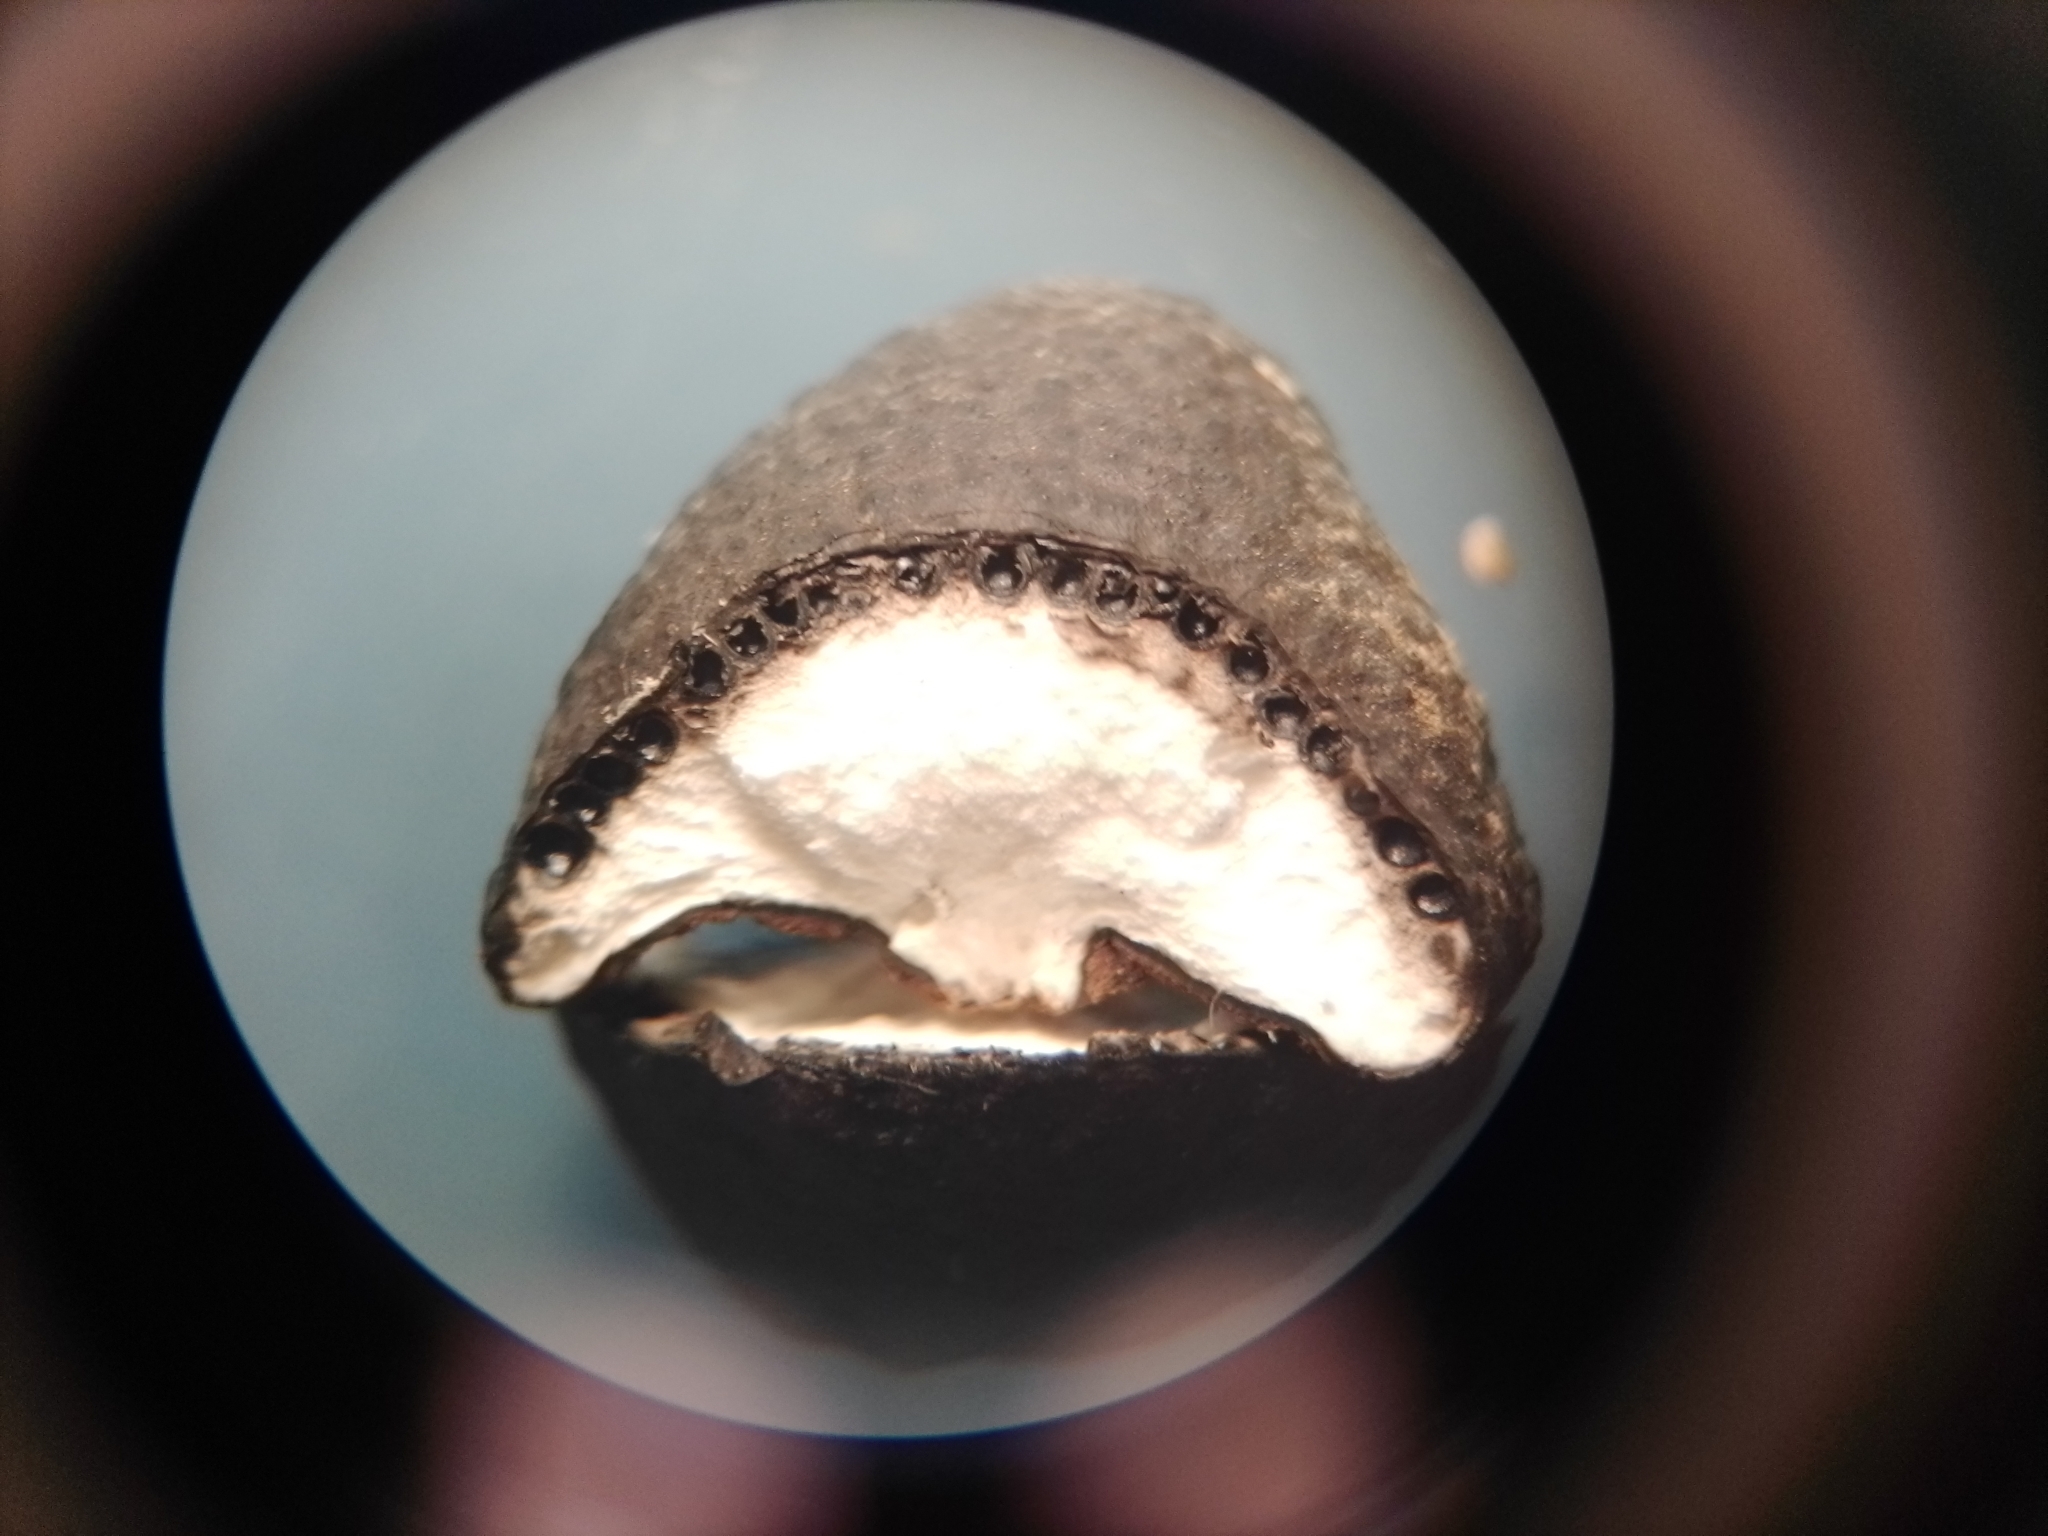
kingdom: Fungi
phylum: Ascomycota
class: Sordariomycetes
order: Xylariales
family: Xylariaceae
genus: Xylosphaera
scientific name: Xylosphaera berteroi
